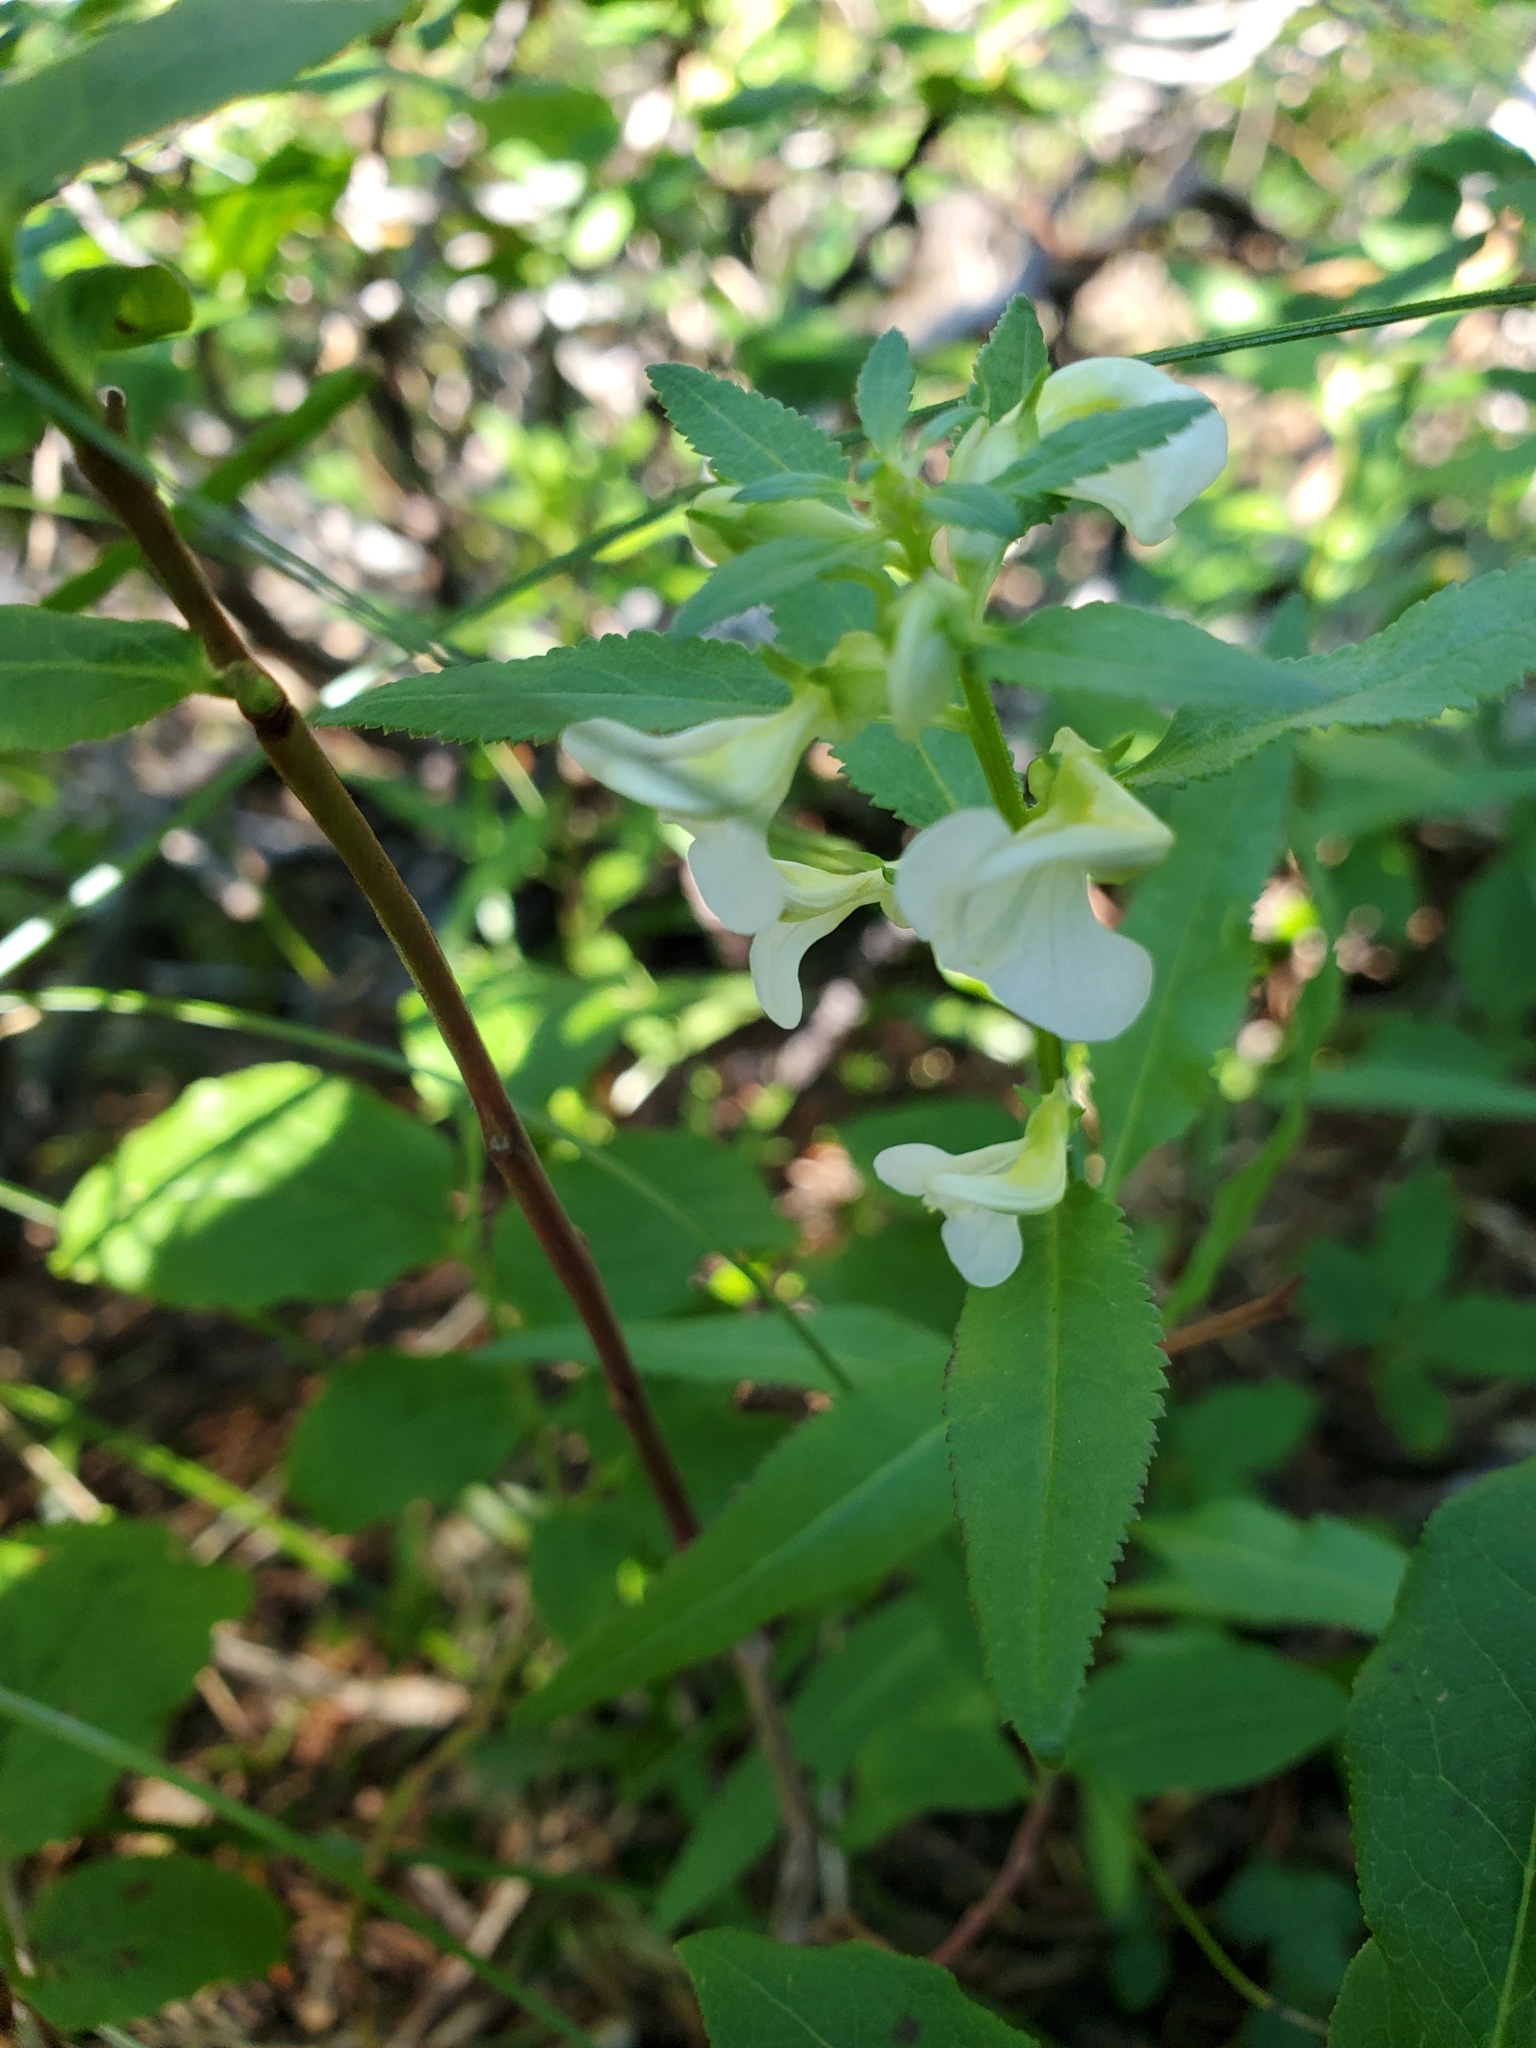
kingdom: Plantae
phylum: Tracheophyta
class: Magnoliopsida
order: Lamiales
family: Orobanchaceae
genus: Pedicularis
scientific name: Pedicularis racemosa
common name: Leafy lousewort
